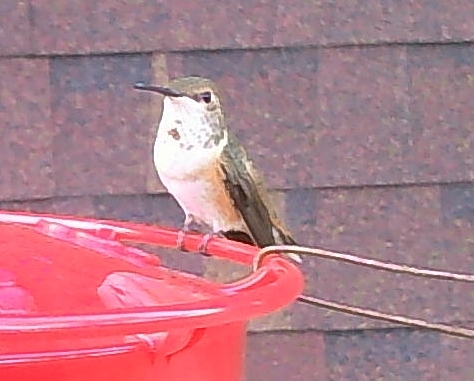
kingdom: Animalia
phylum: Chordata
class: Aves
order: Apodiformes
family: Trochilidae
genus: Selasphorus
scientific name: Selasphorus rufus
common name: Rufous hummingbird
